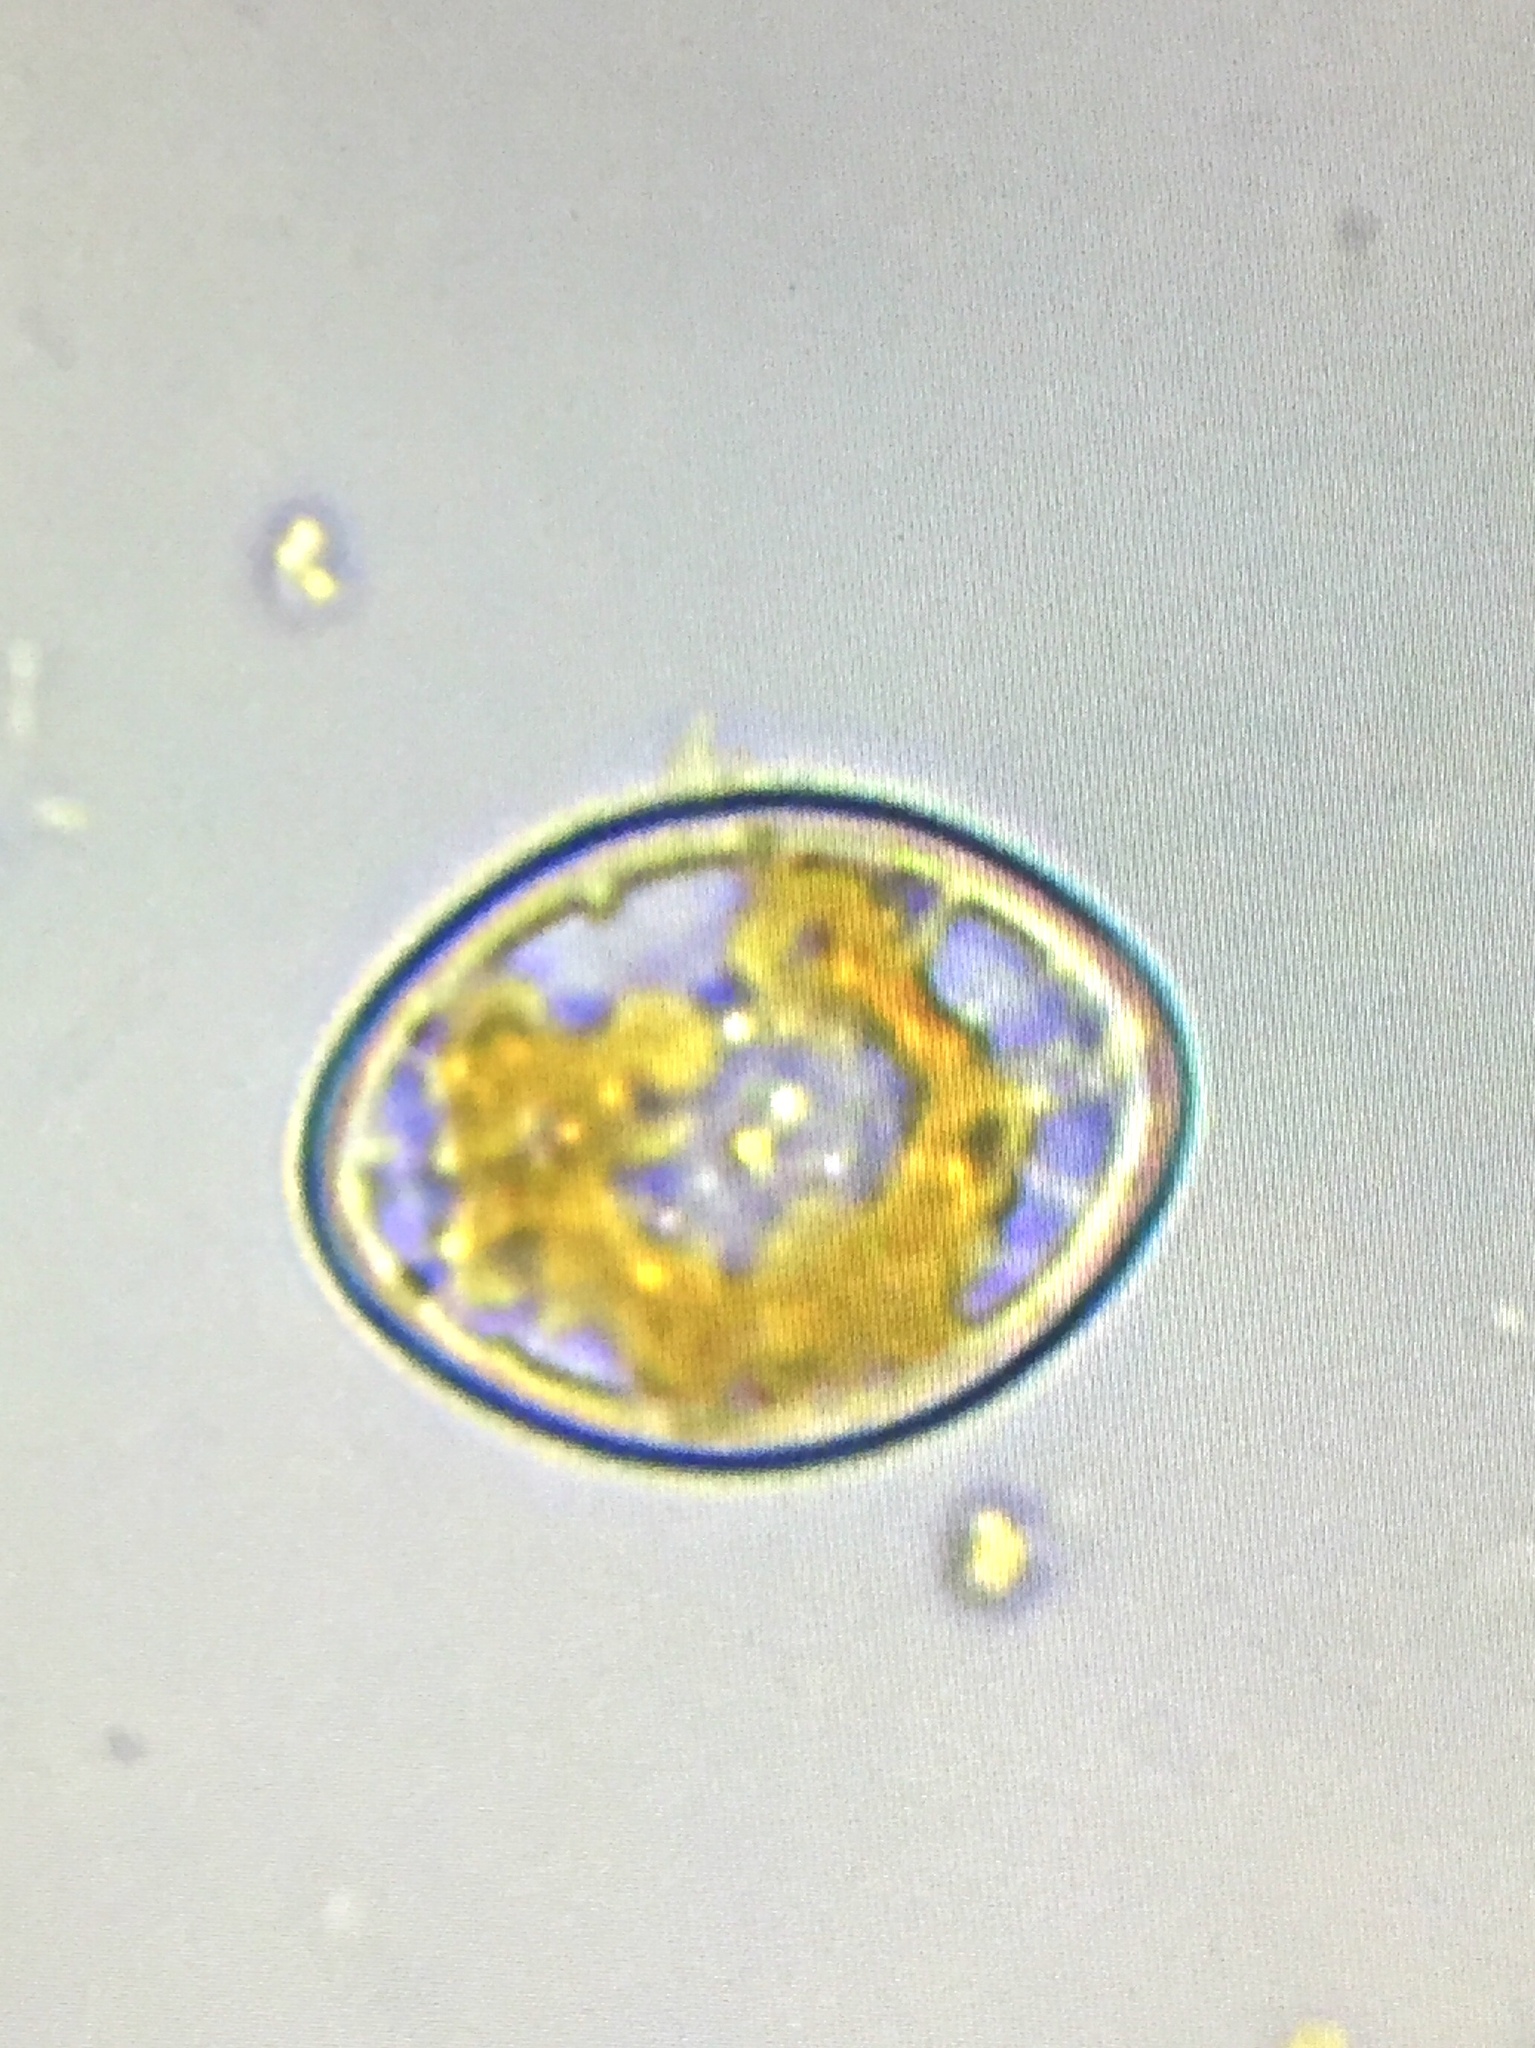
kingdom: Chromista
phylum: Ochrophyta
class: Bacillariophyceae
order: Achnanthales
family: Cocconeidaceae
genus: Cocconeis
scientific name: Cocconeis pediculus
